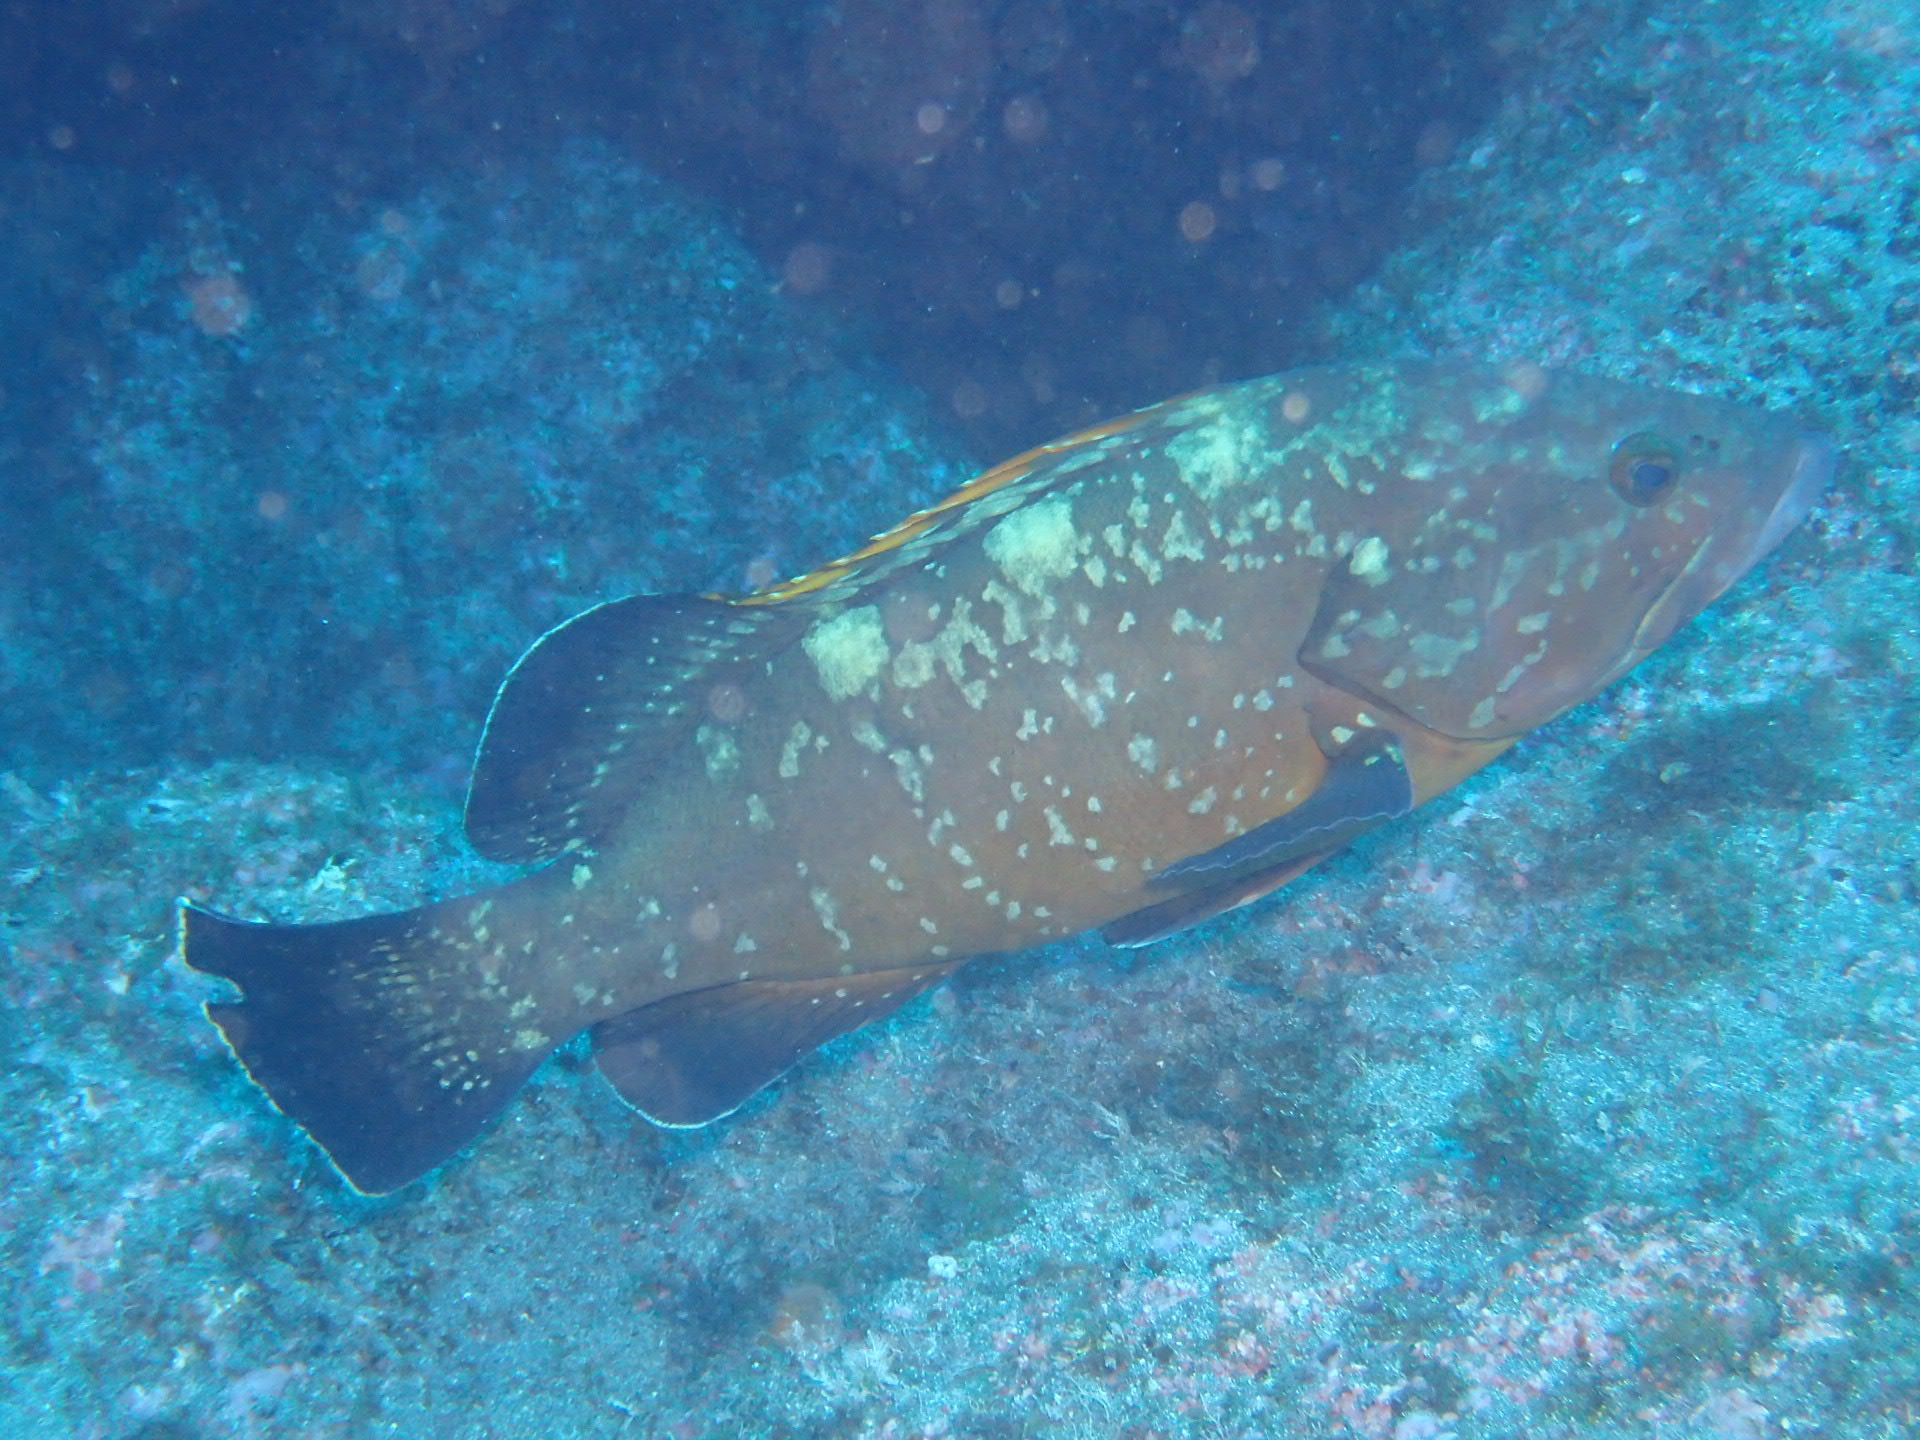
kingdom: Animalia
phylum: Chordata
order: Perciformes
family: Serranidae
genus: Epinephelus
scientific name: Epinephelus marginatus
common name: Dusky grouper
